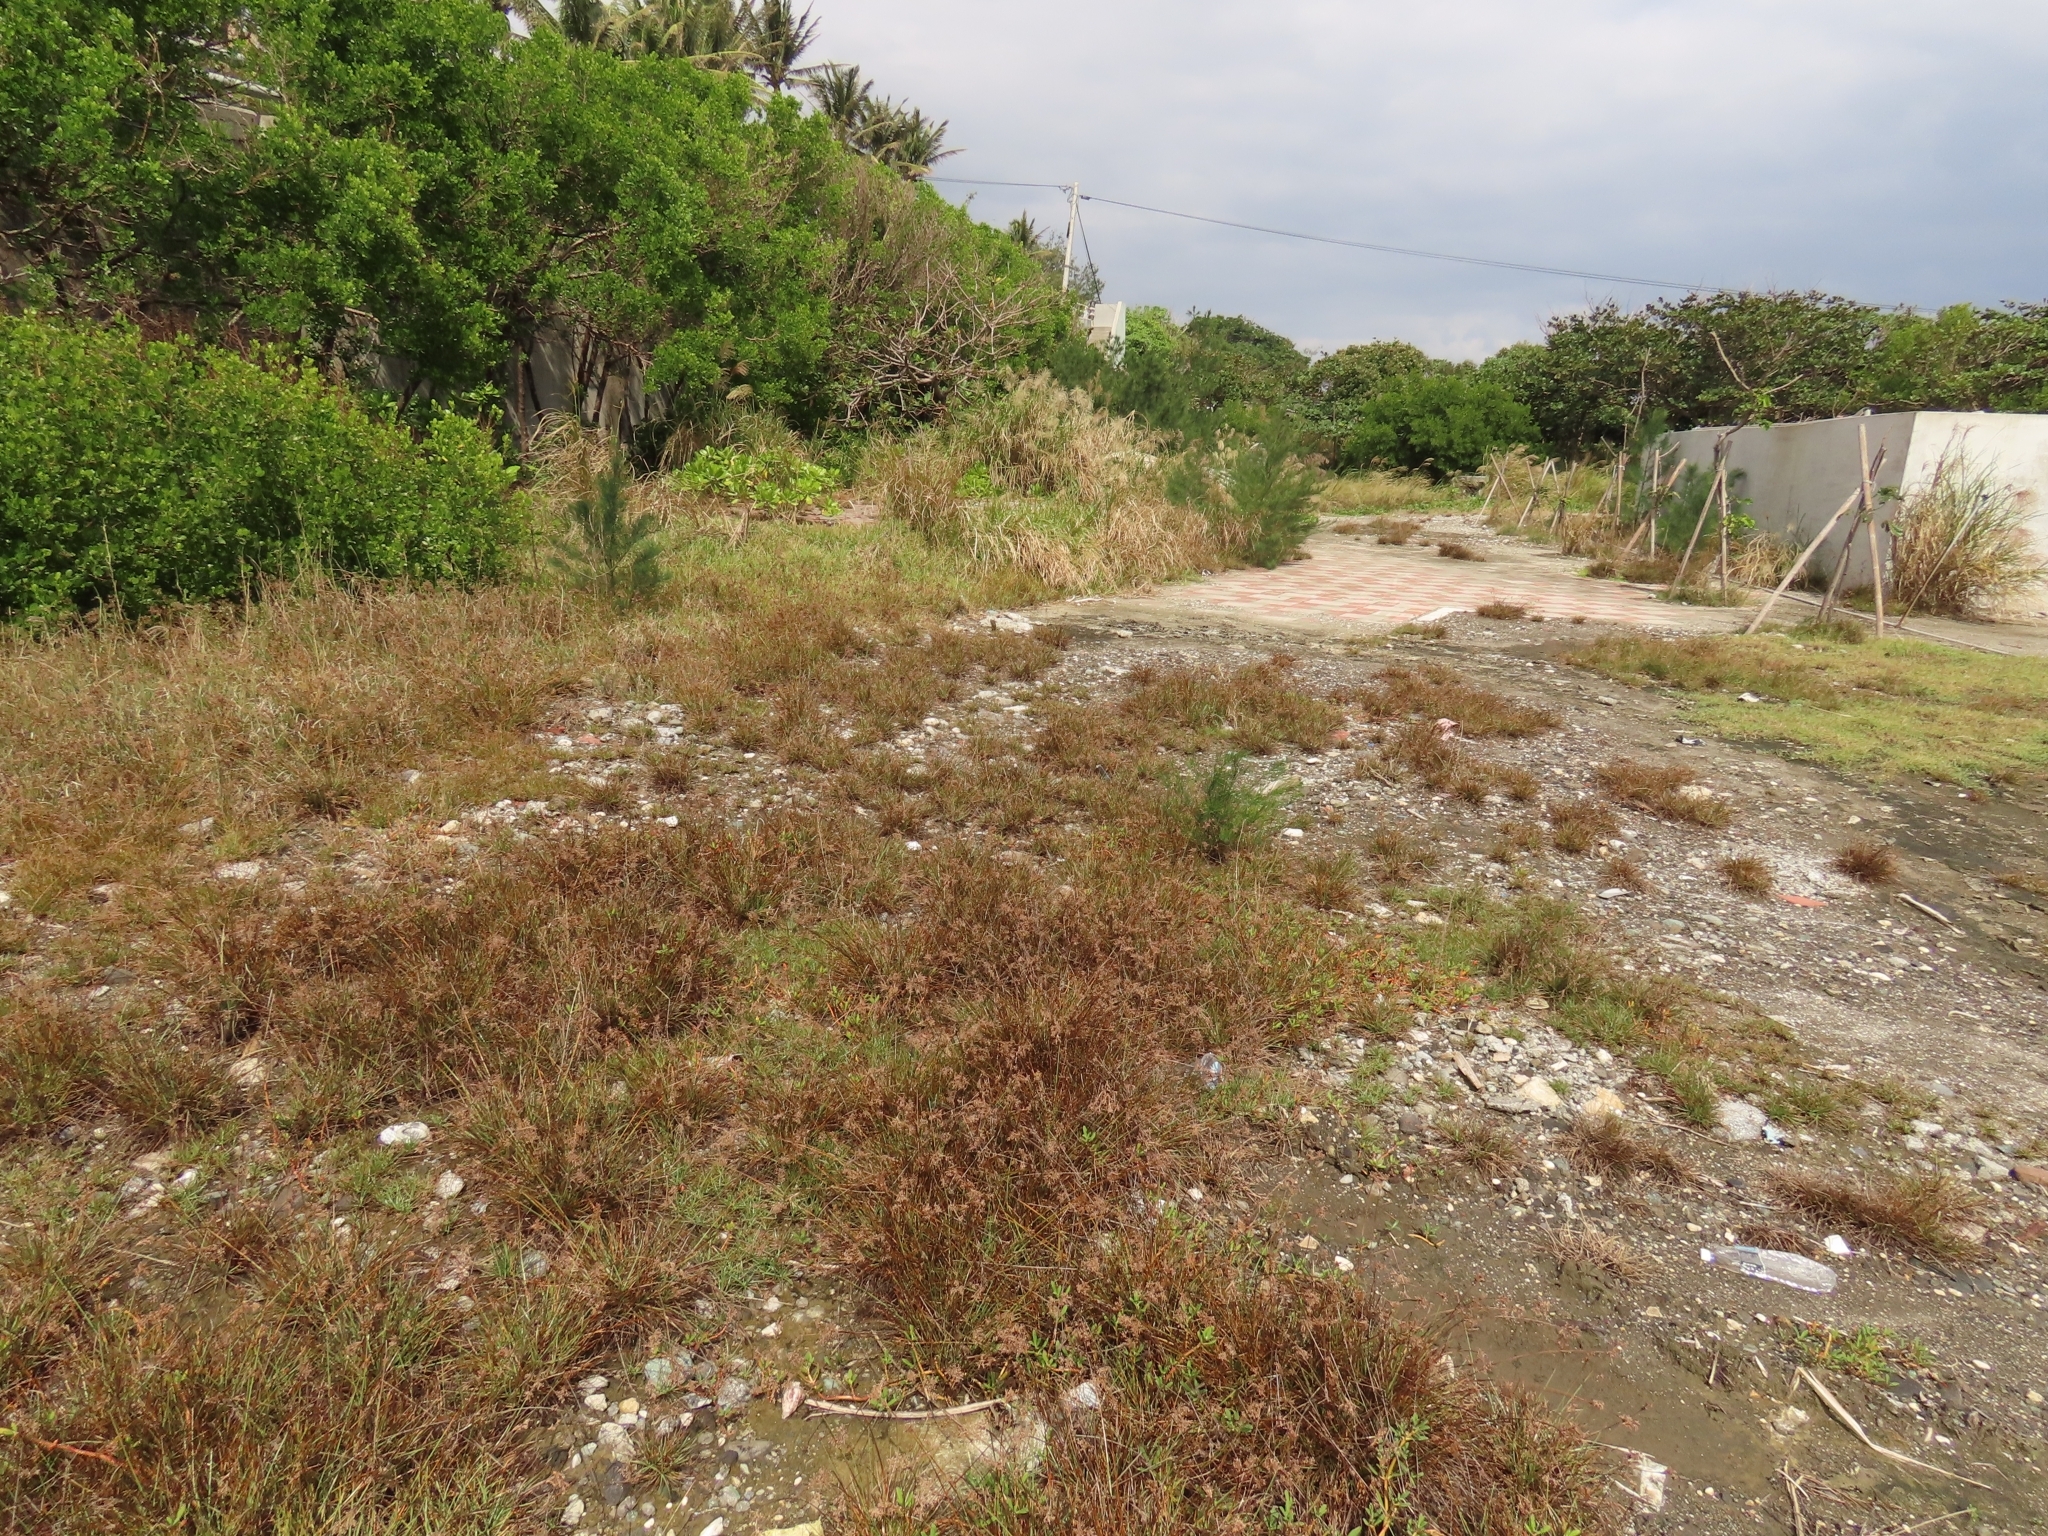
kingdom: Plantae
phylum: Tracheophyta
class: Magnoliopsida
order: Myrtales
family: Combretaceae
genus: Lumnitzera
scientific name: Lumnitzera racemosa
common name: White-flowered black mangrove
